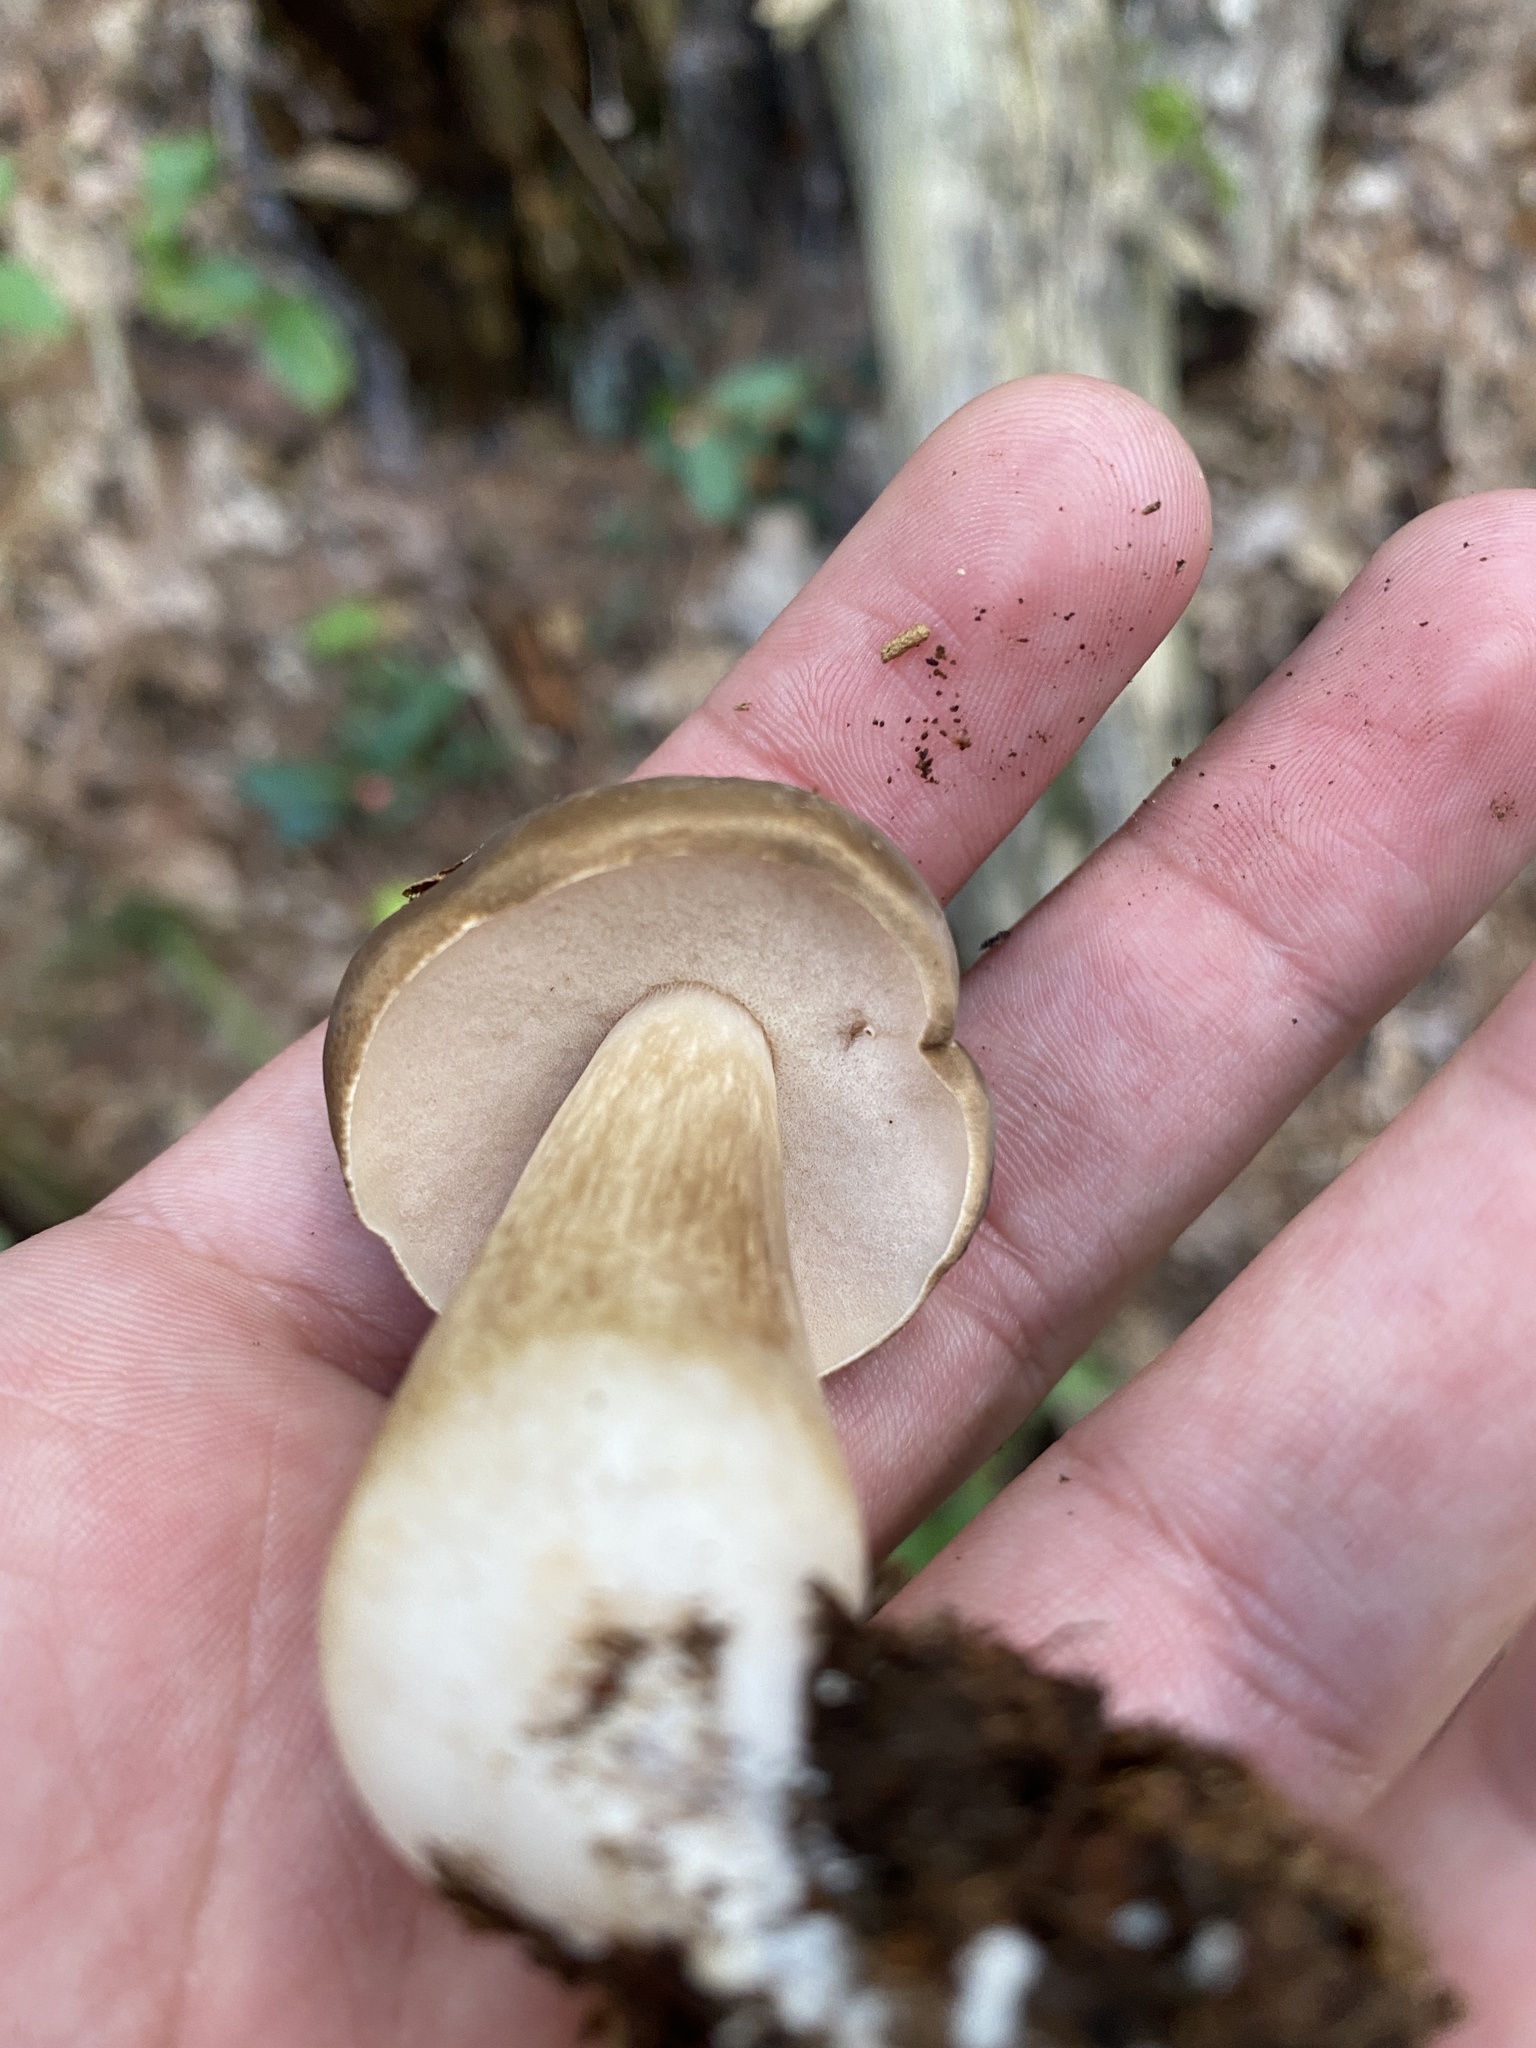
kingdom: Fungi
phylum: Basidiomycota
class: Agaricomycetes
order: Boletales
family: Boletaceae
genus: Xanthoconium
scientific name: Xanthoconium affine
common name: Spotted bolete
